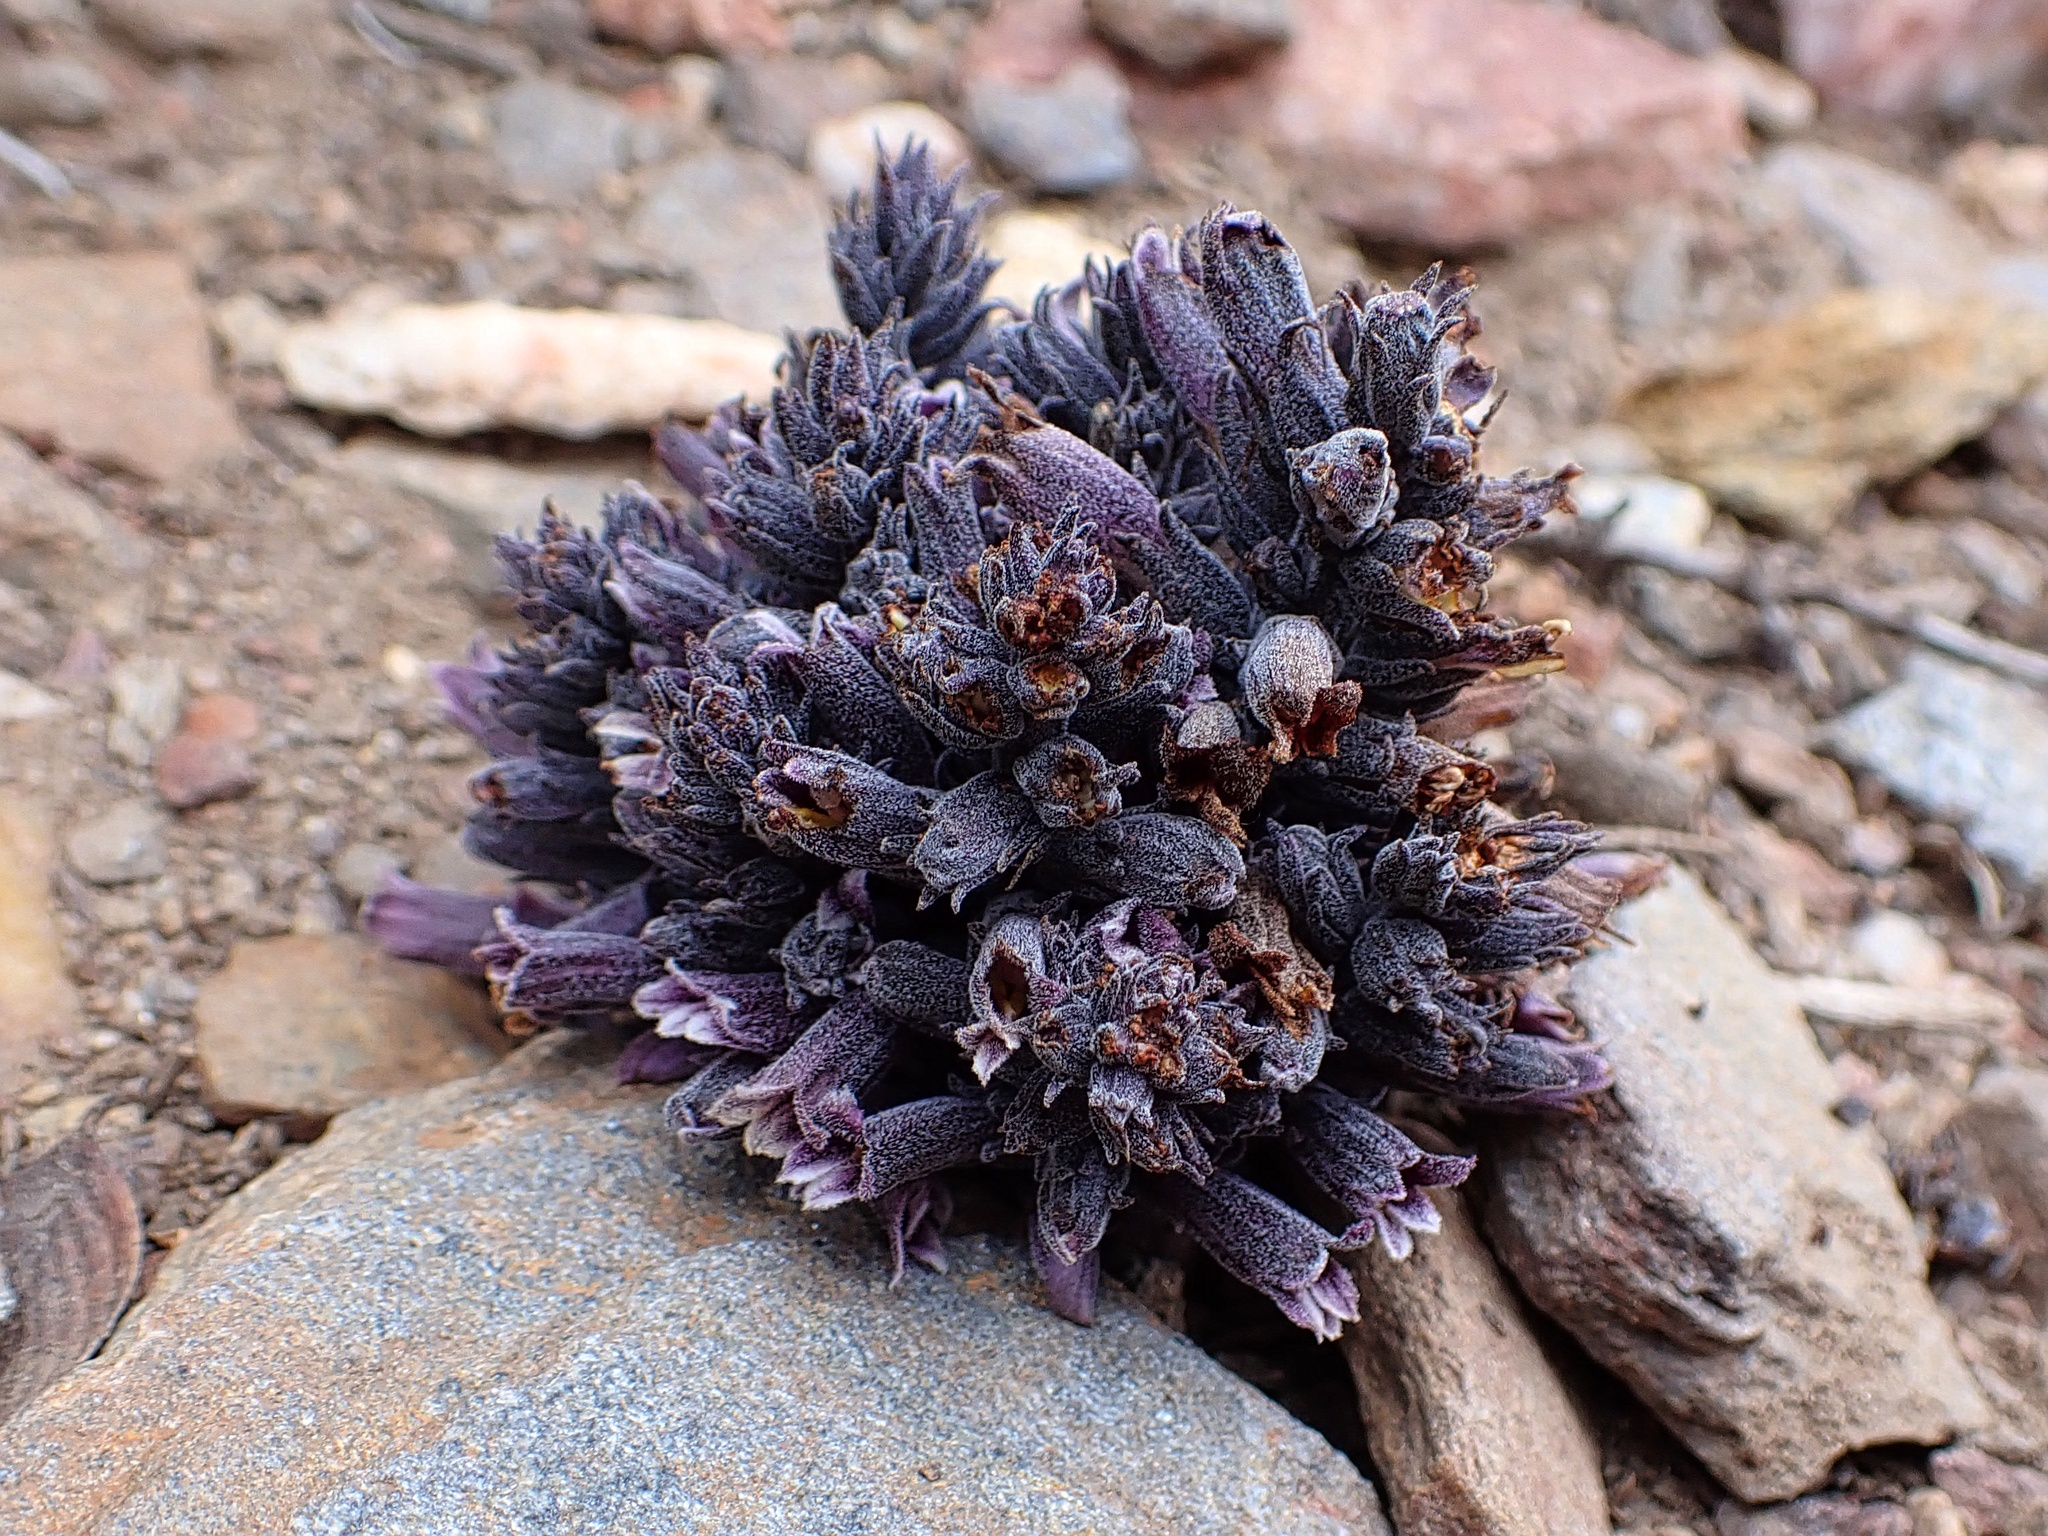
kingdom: Plantae
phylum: Tracheophyta
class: Magnoliopsida
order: Lamiales
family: Orobanchaceae
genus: Aphyllon
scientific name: Aphyllon tuberosum
